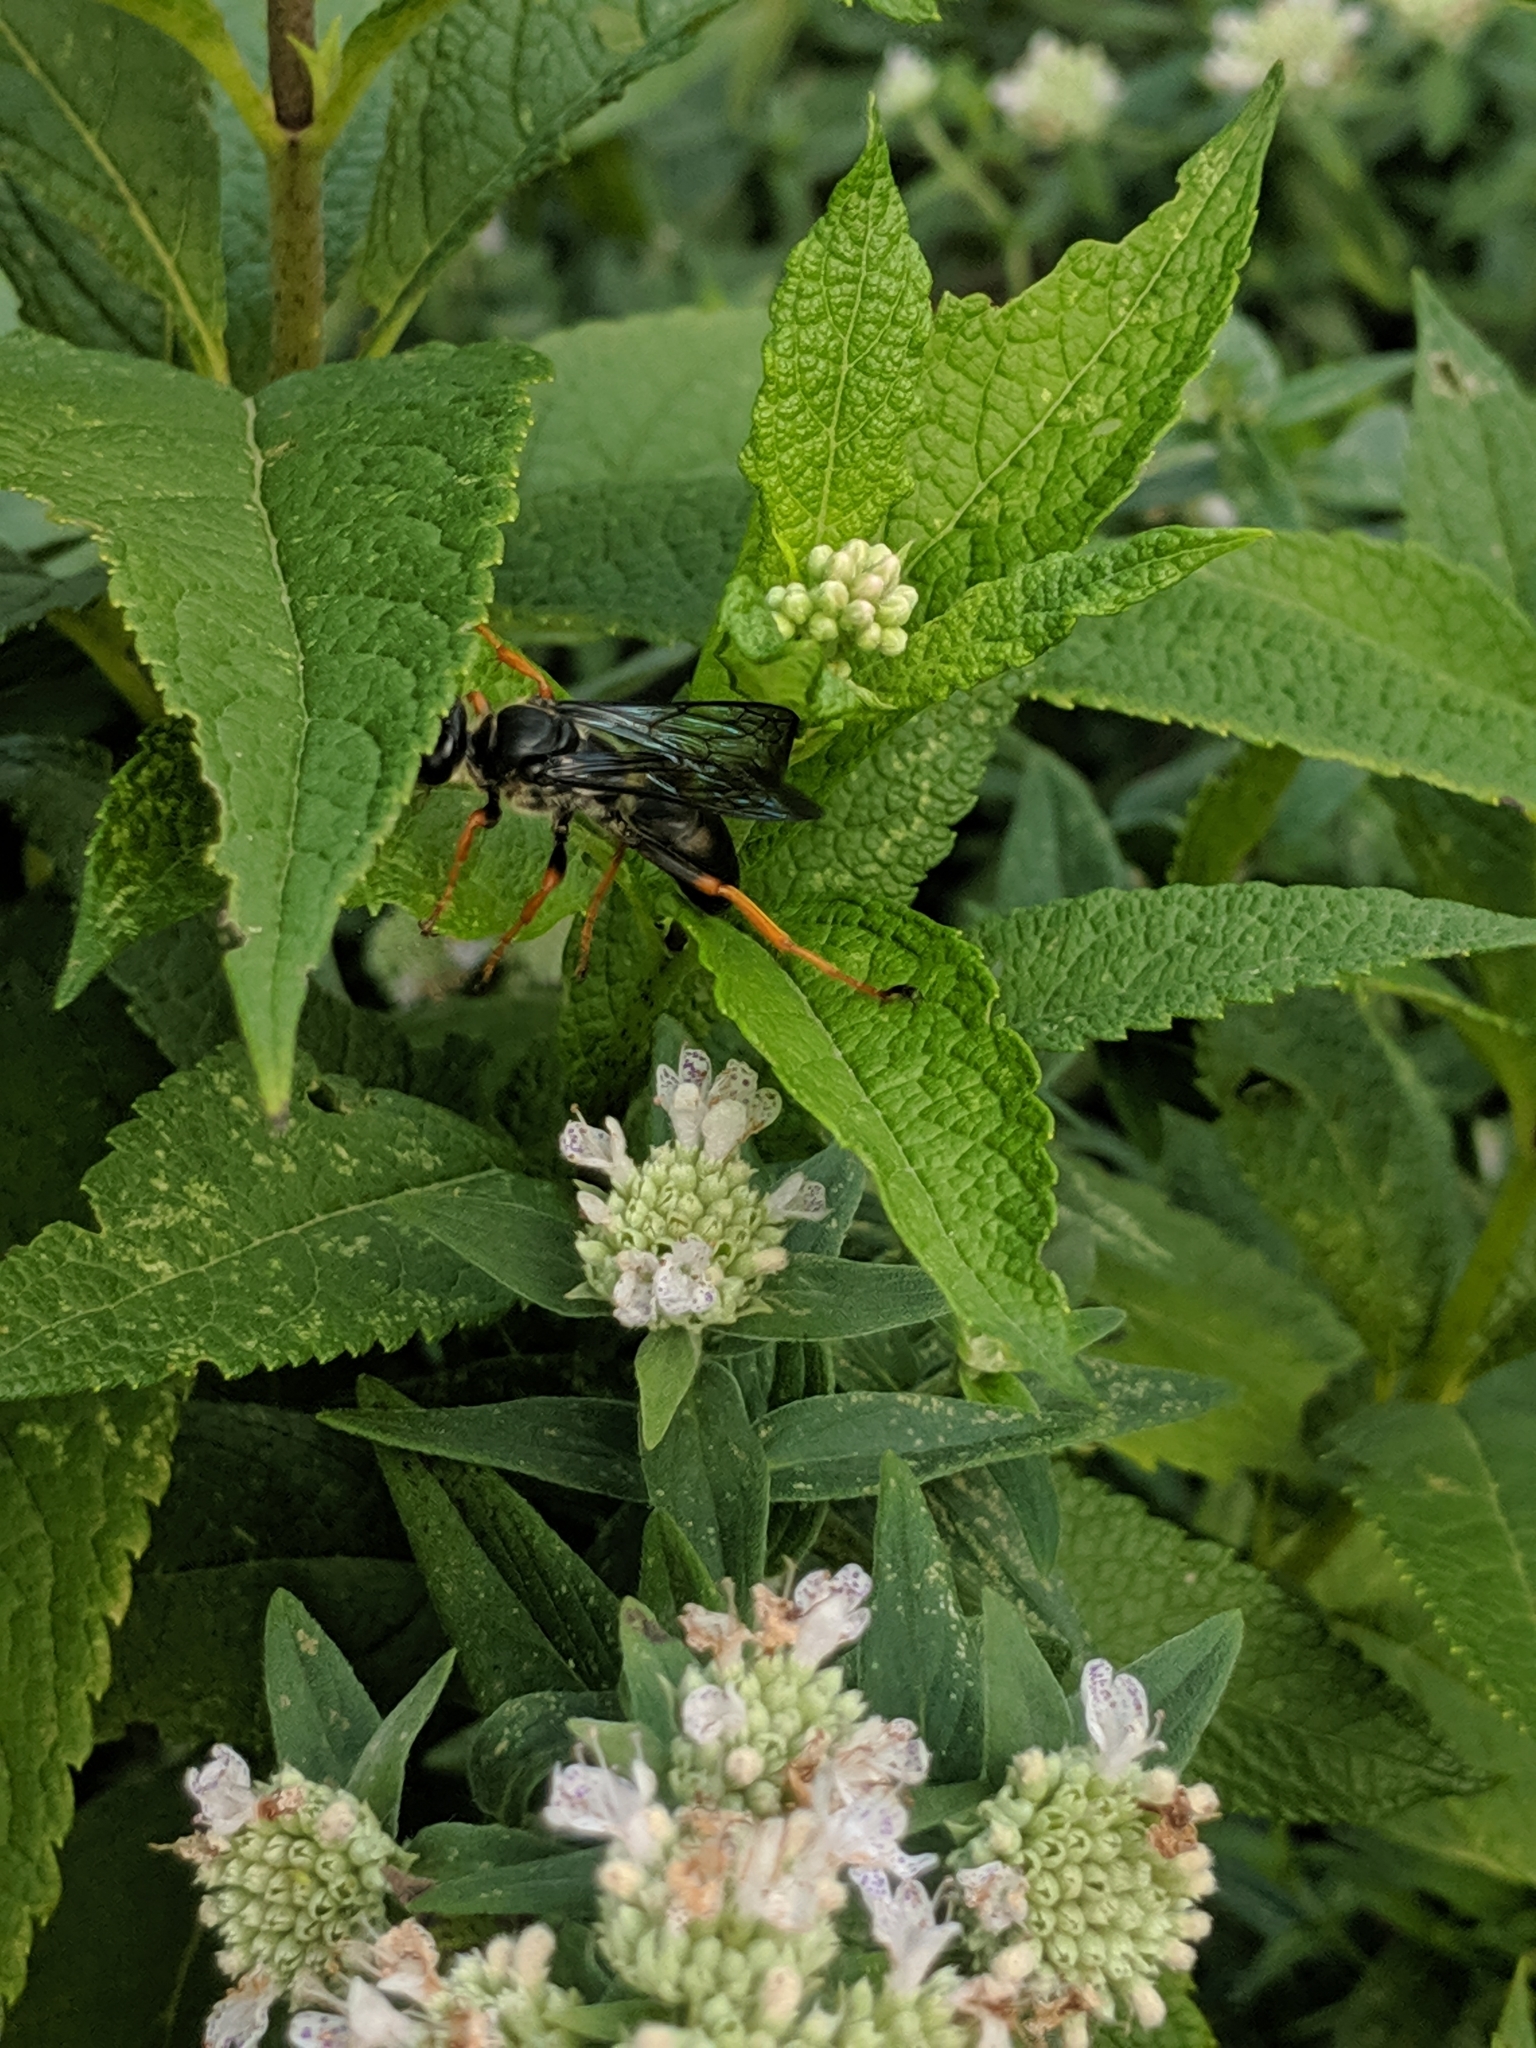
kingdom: Animalia
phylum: Arthropoda
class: Insecta
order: Hymenoptera
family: Sphecidae
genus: Sphex
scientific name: Sphex nudus
